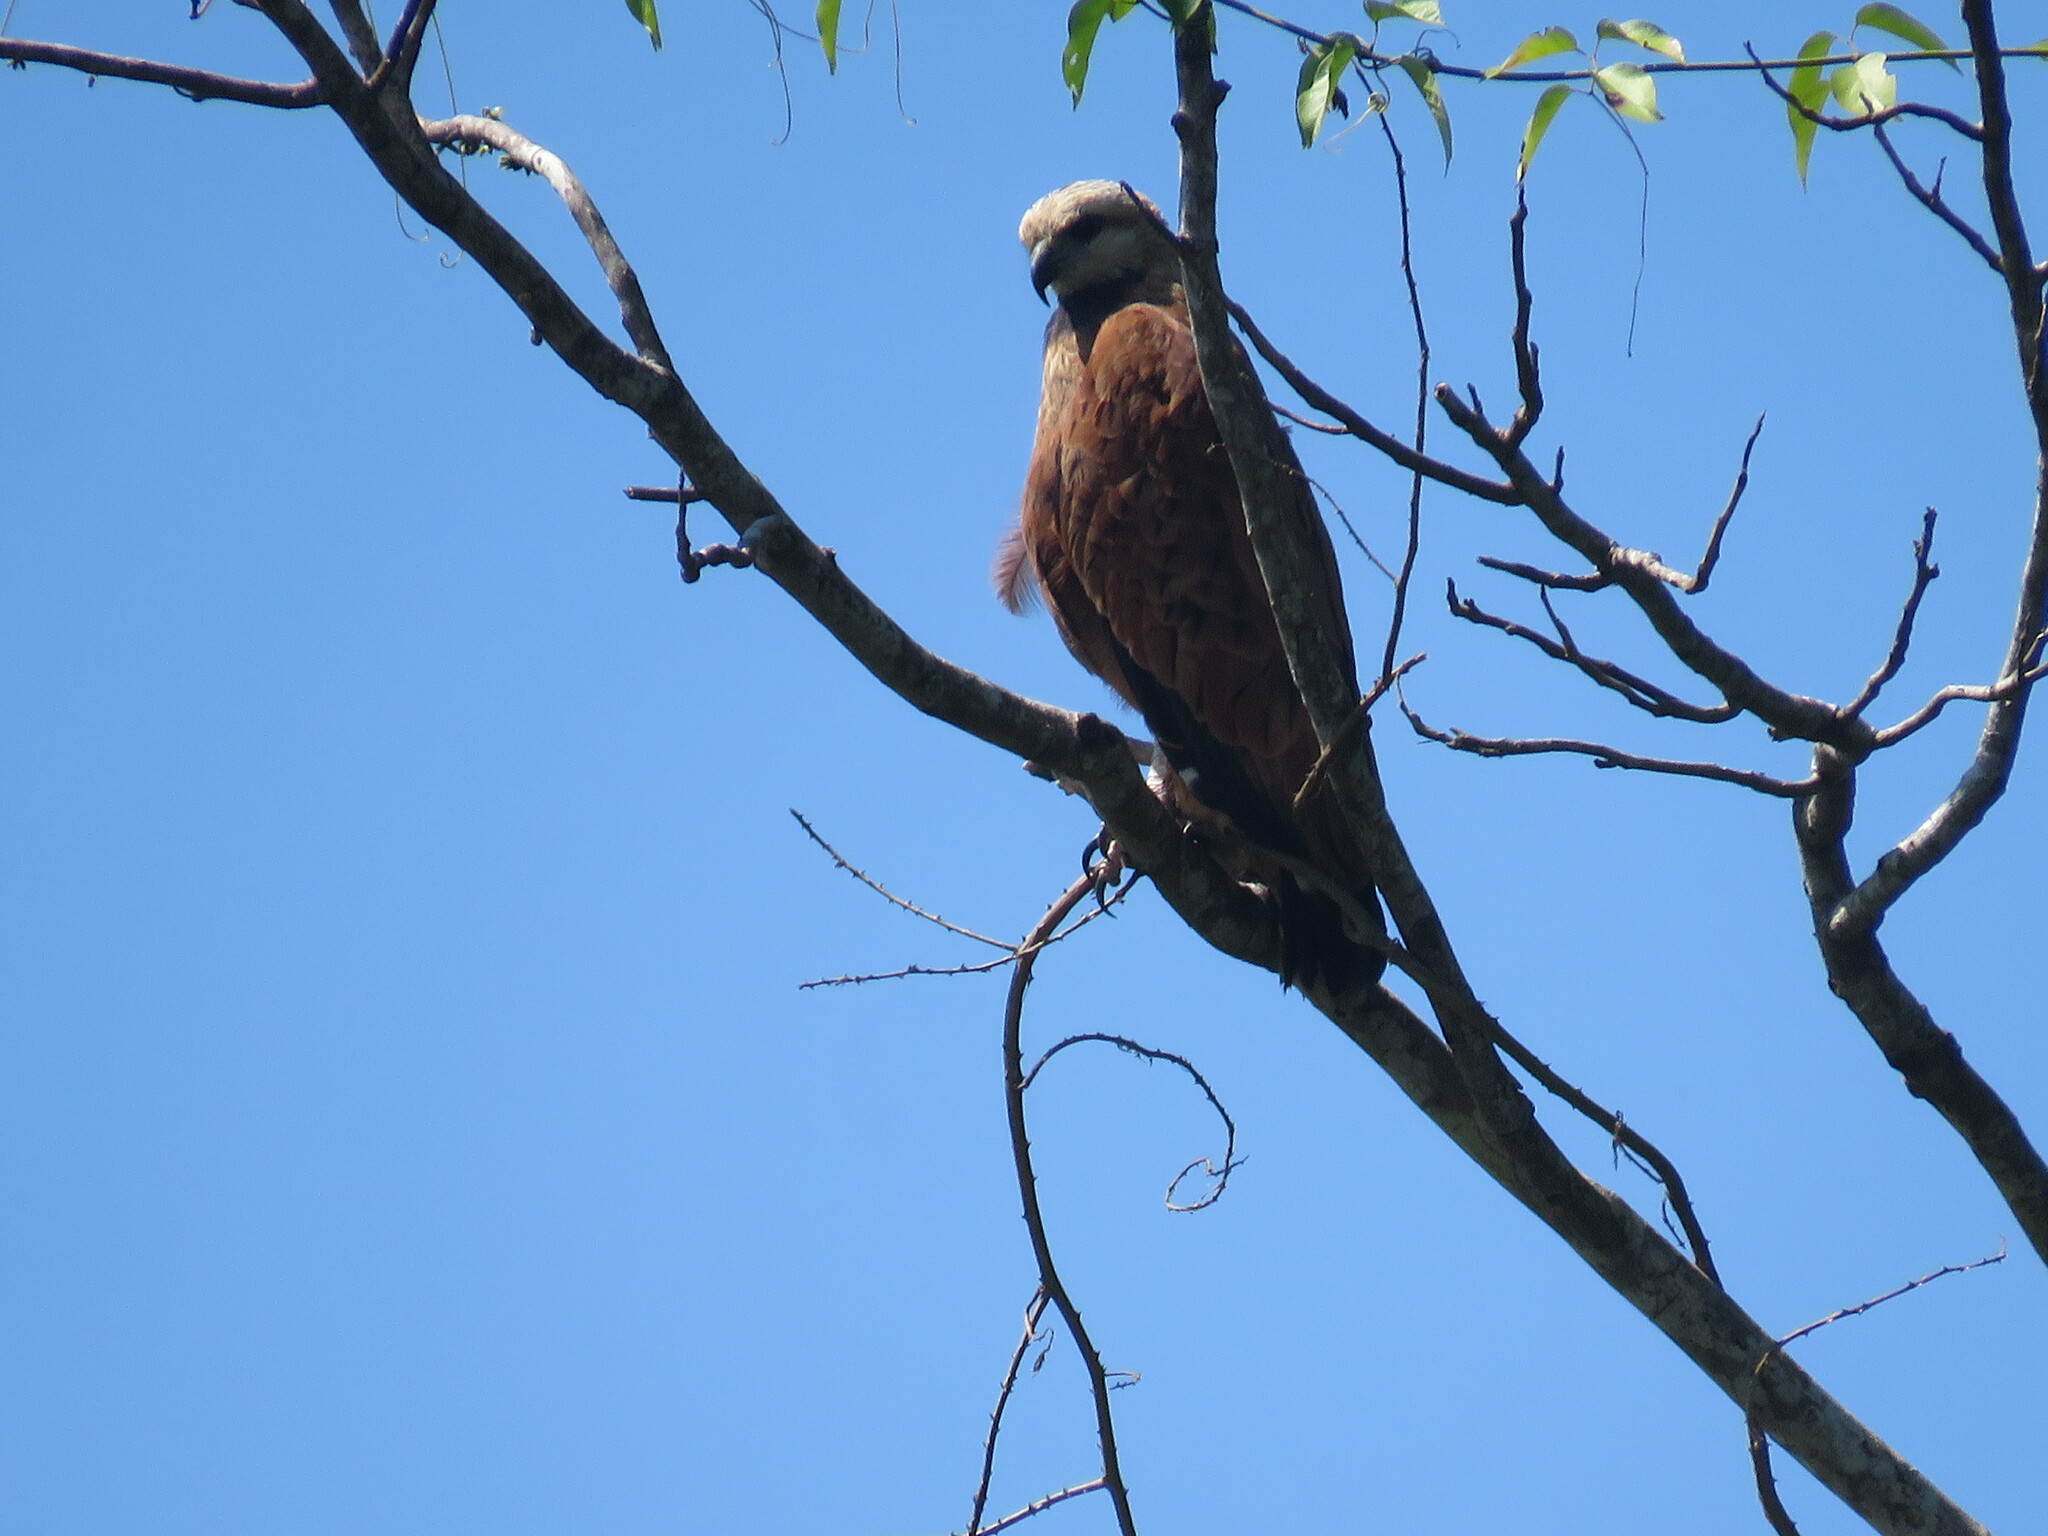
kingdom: Animalia
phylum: Chordata
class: Aves
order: Accipitriformes
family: Accipitridae
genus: Busarellus
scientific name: Busarellus nigricollis
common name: Black-collared hawk
